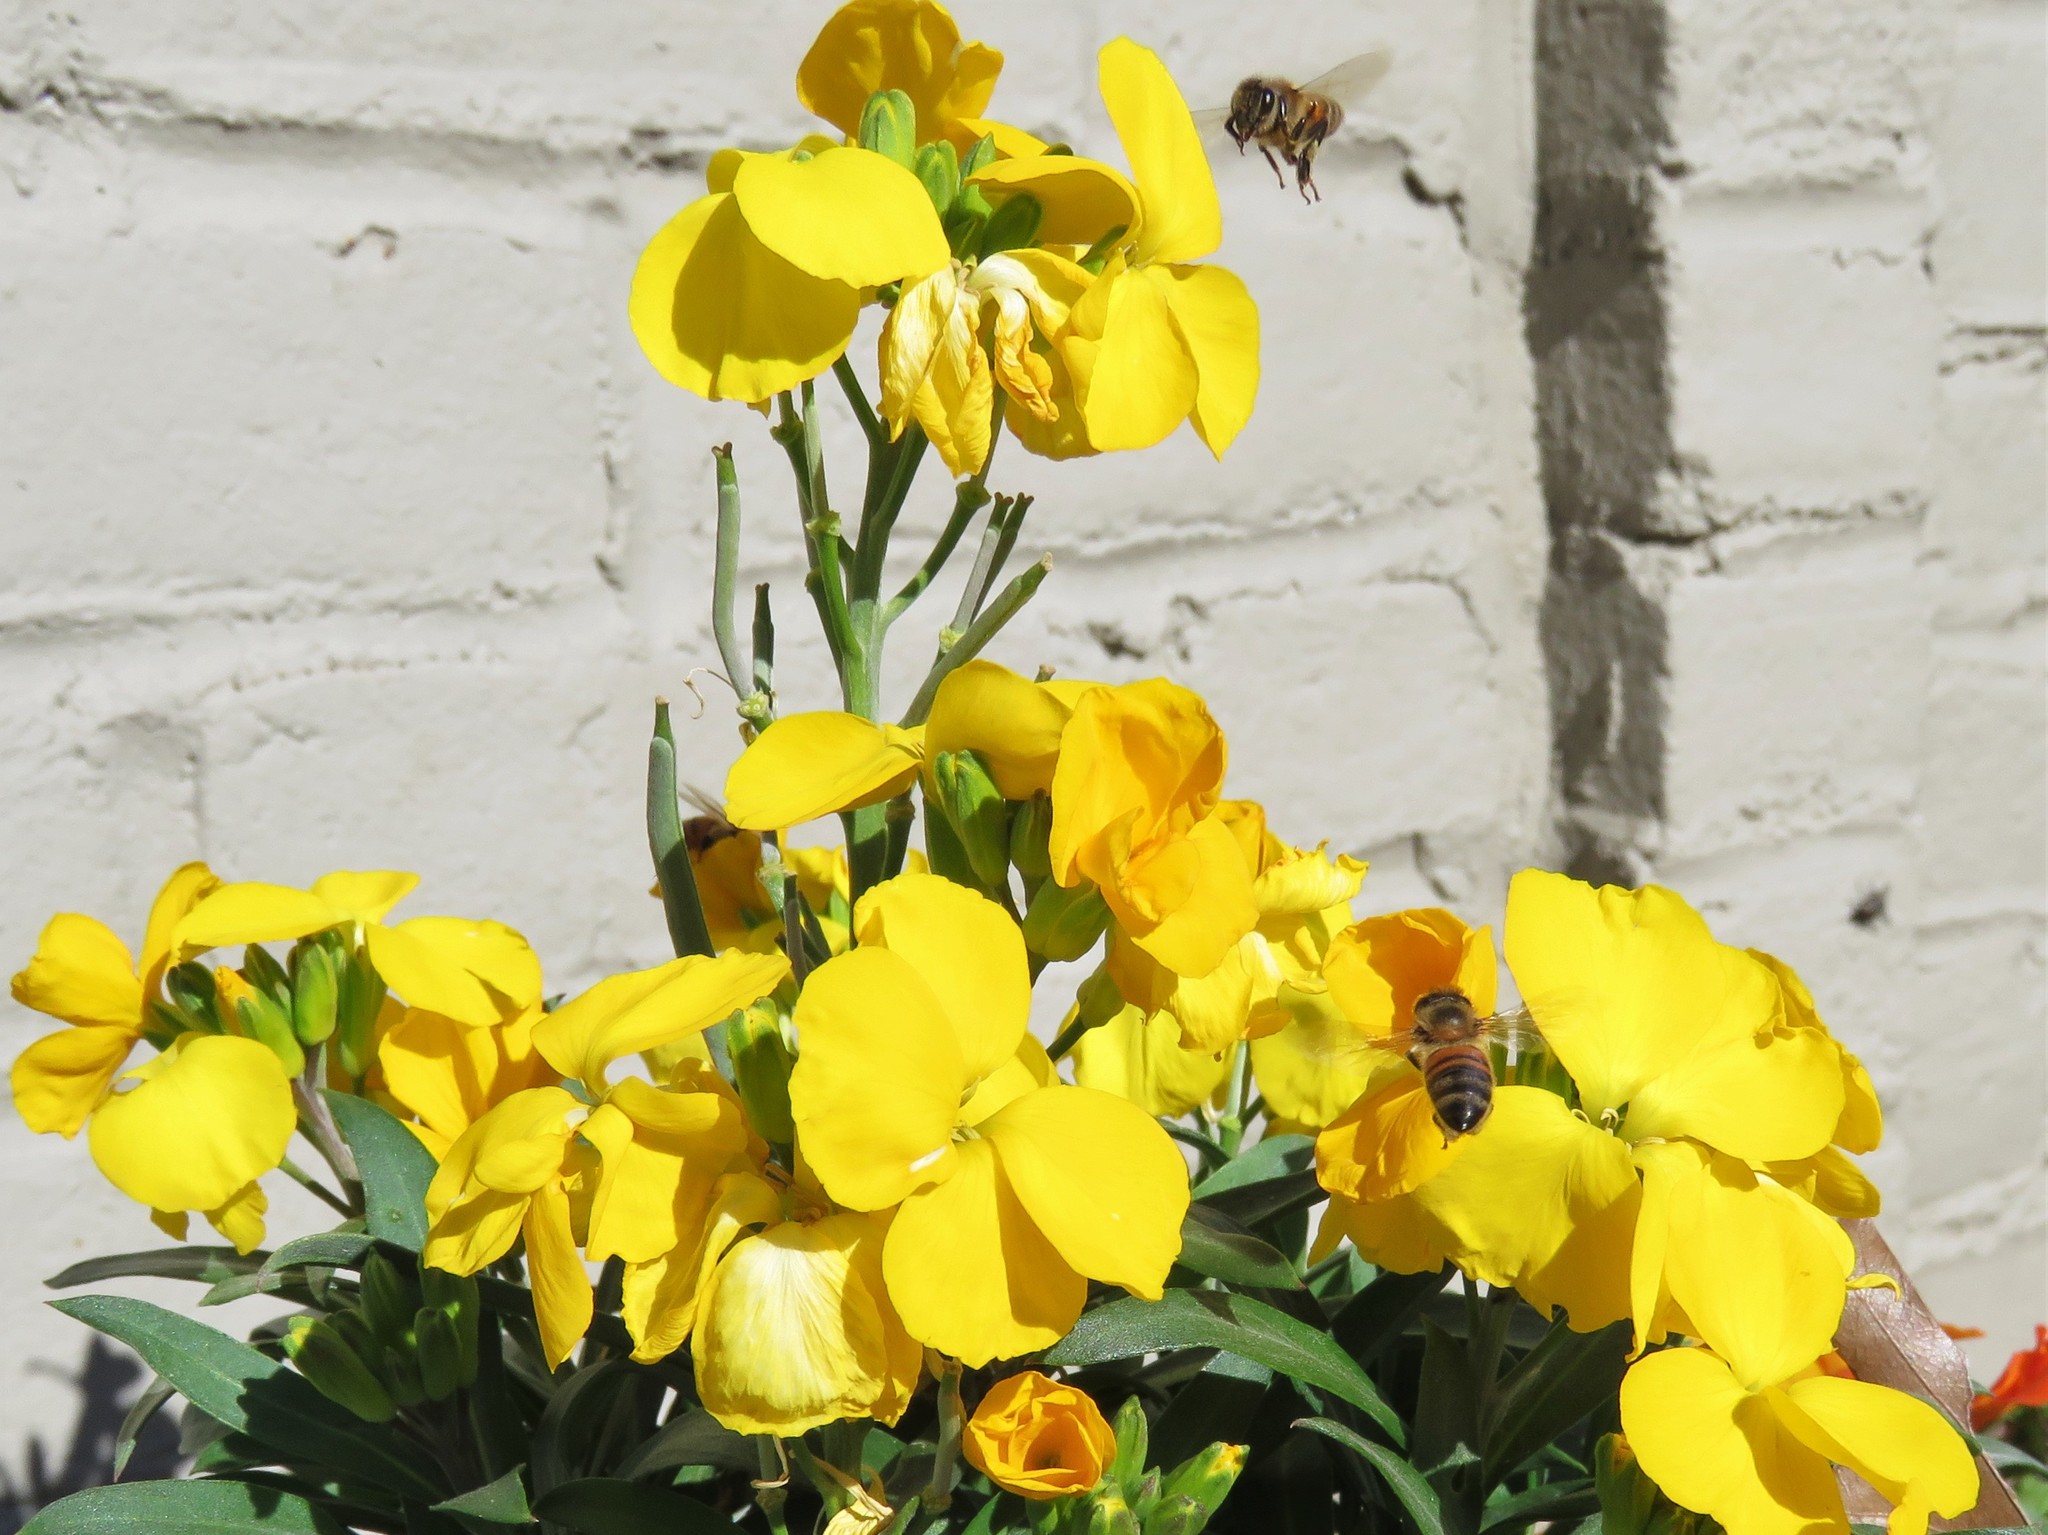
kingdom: Animalia
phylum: Arthropoda
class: Insecta
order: Hymenoptera
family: Apidae
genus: Apis
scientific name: Apis mellifera
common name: Honey bee
